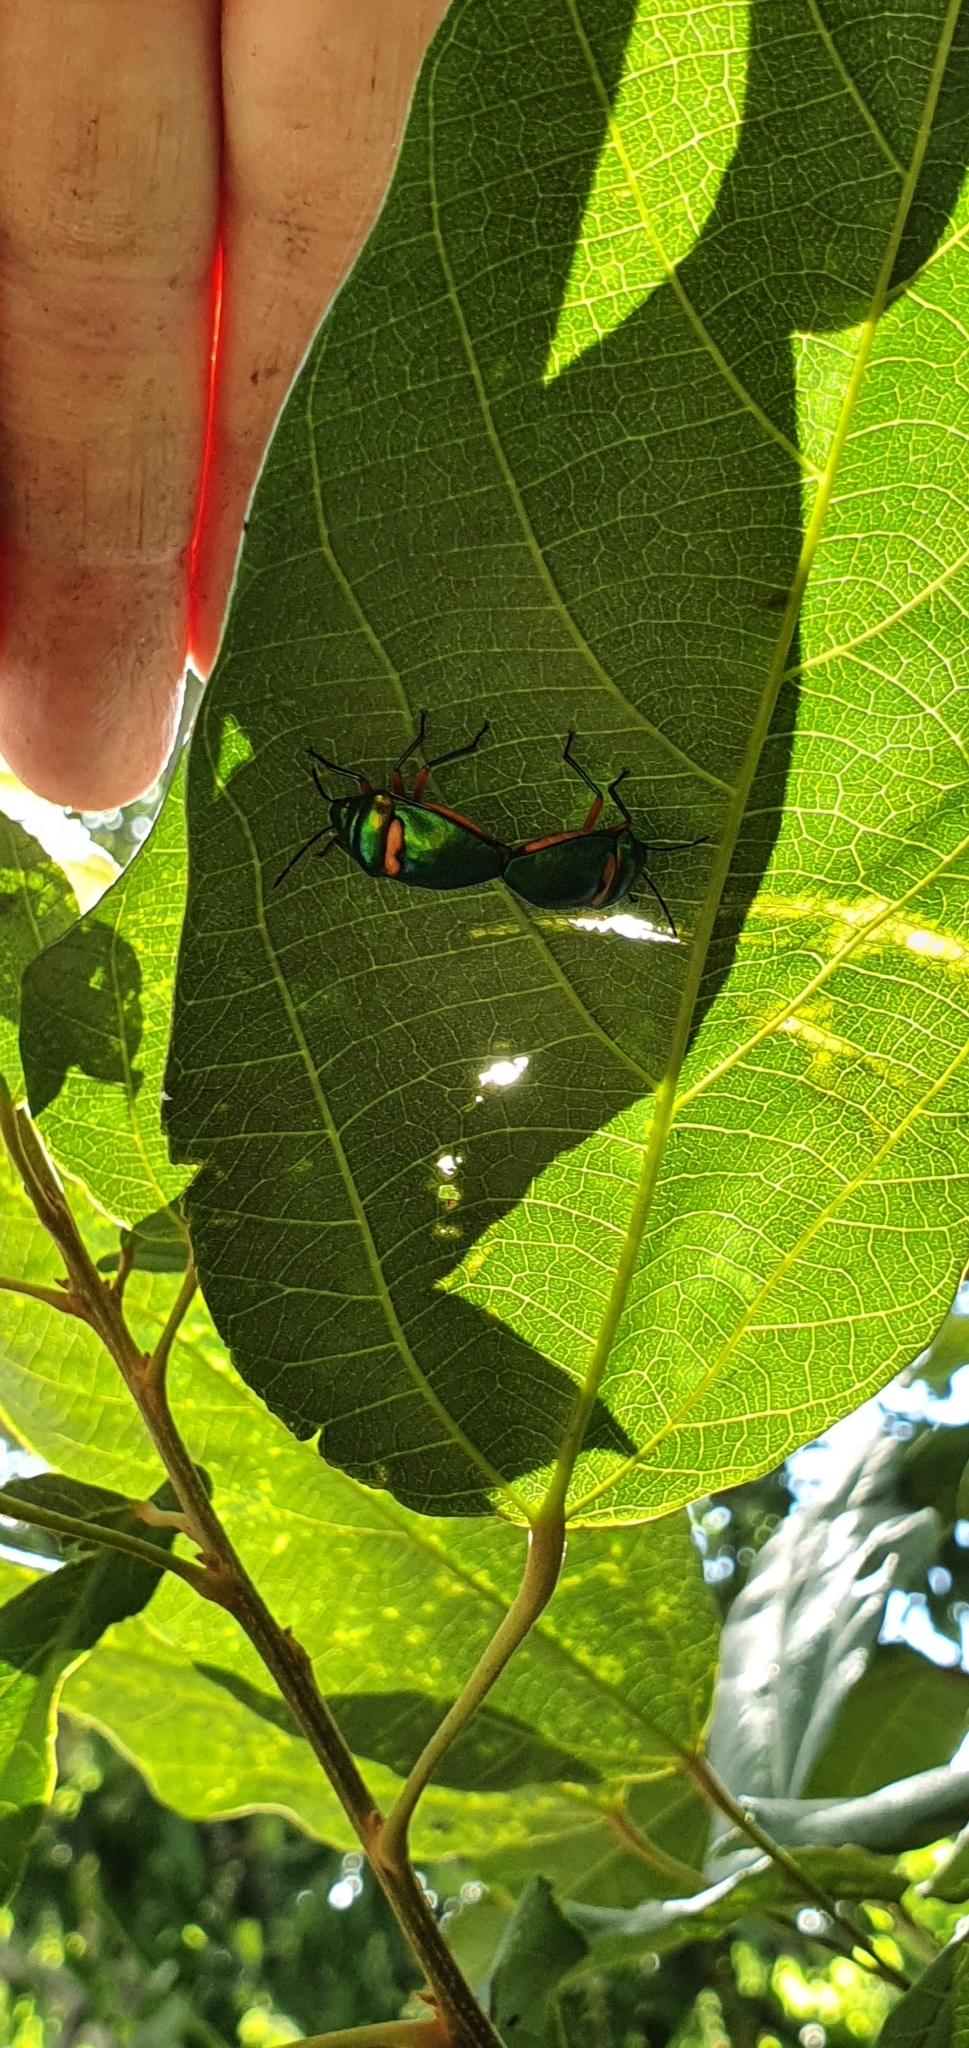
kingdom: Animalia
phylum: Arthropoda
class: Insecta
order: Hemiptera
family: Scutelleridae
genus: Lampromicra
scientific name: Lampromicra senator
